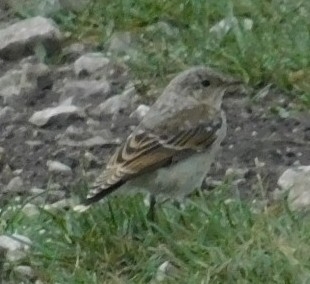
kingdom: Animalia
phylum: Chordata
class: Aves
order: Passeriformes
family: Muscicapidae
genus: Oenanthe
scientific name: Oenanthe oenanthe
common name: Northern wheatear
